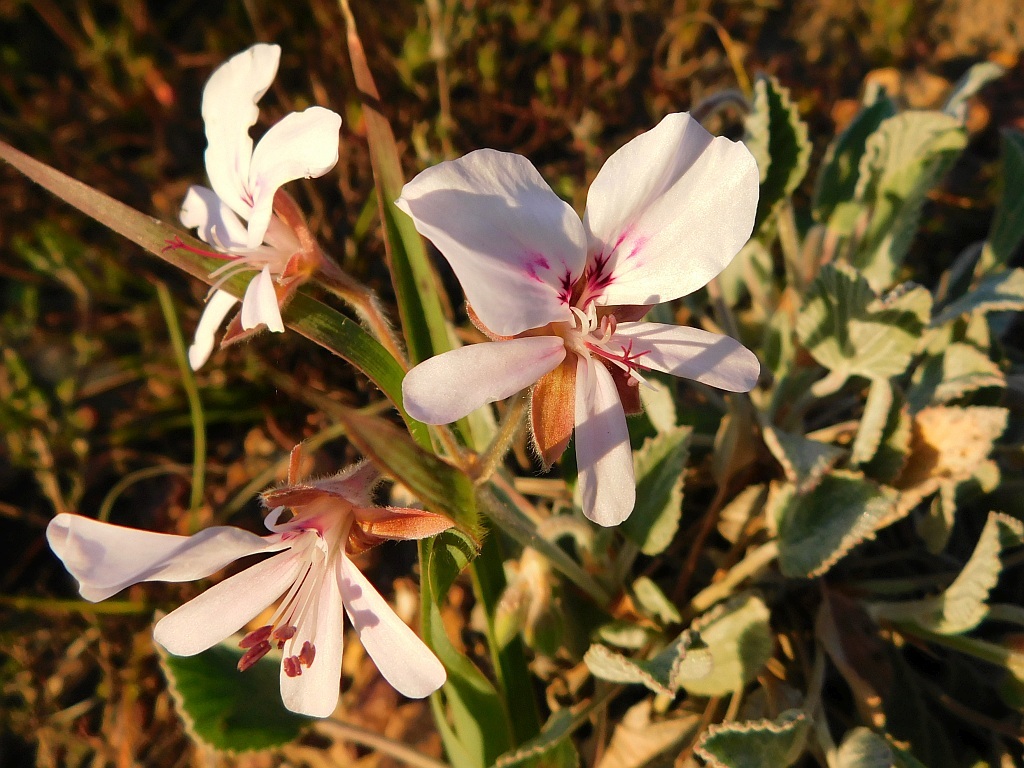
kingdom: Plantae
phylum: Tracheophyta
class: Magnoliopsida
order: Geraniales
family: Geraniaceae
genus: Pelargonium
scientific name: Pelargonium ovale
